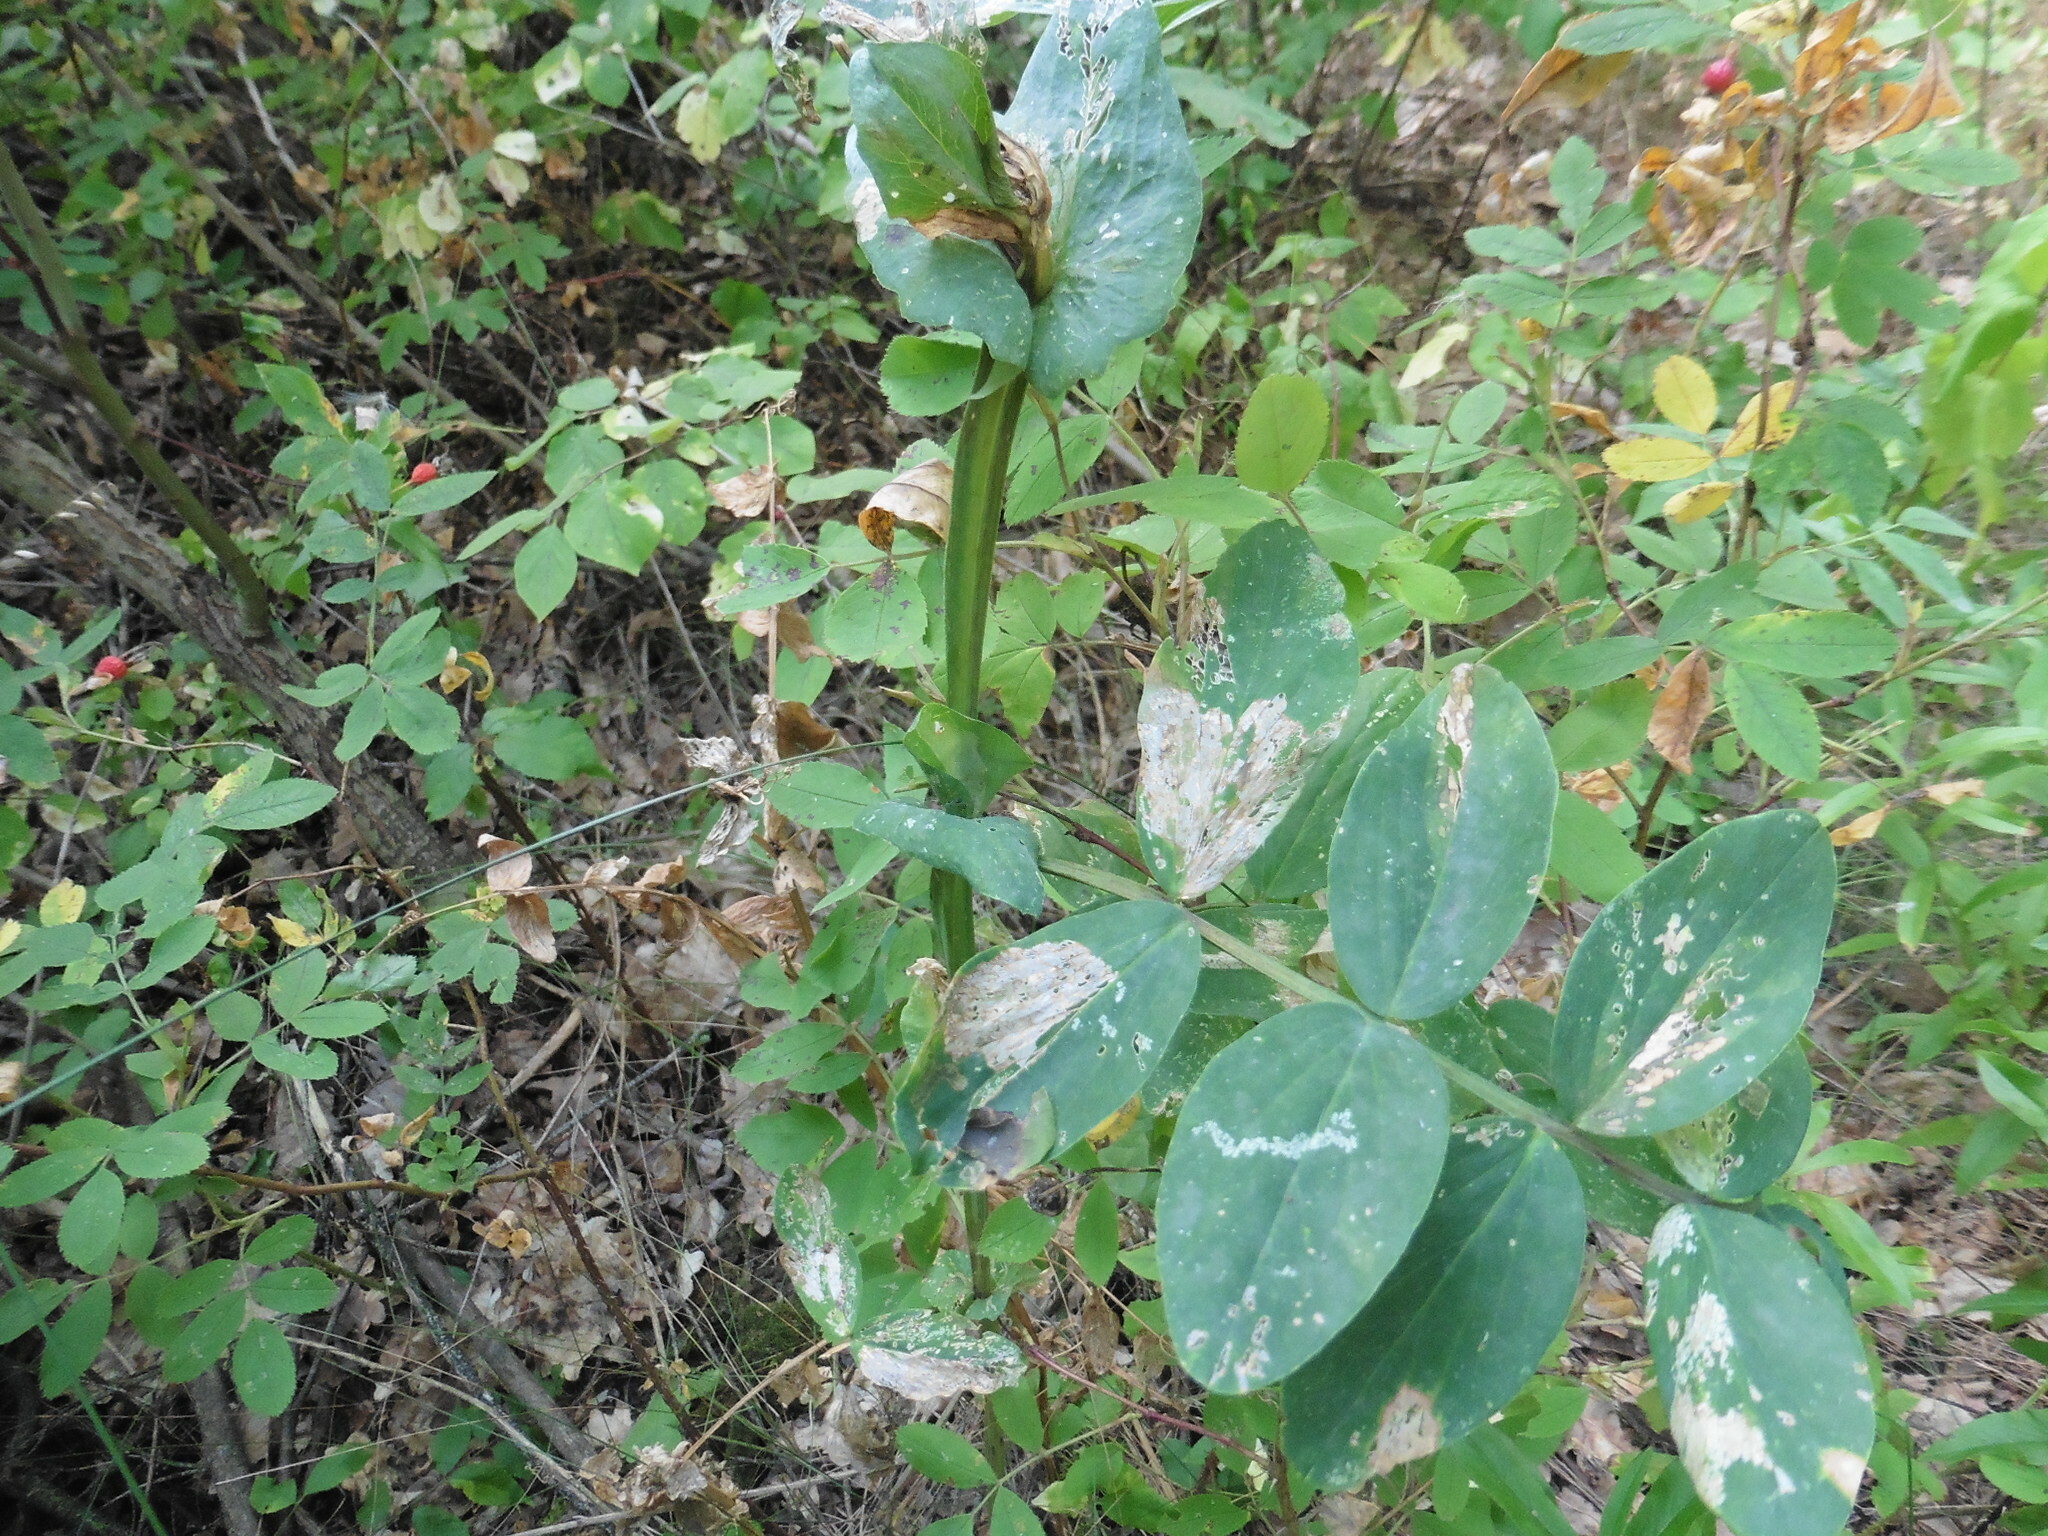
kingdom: Plantae
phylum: Tracheophyta
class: Magnoliopsida
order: Fabales
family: Fabaceae
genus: Lathyrus
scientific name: Lathyrus pisiformis
